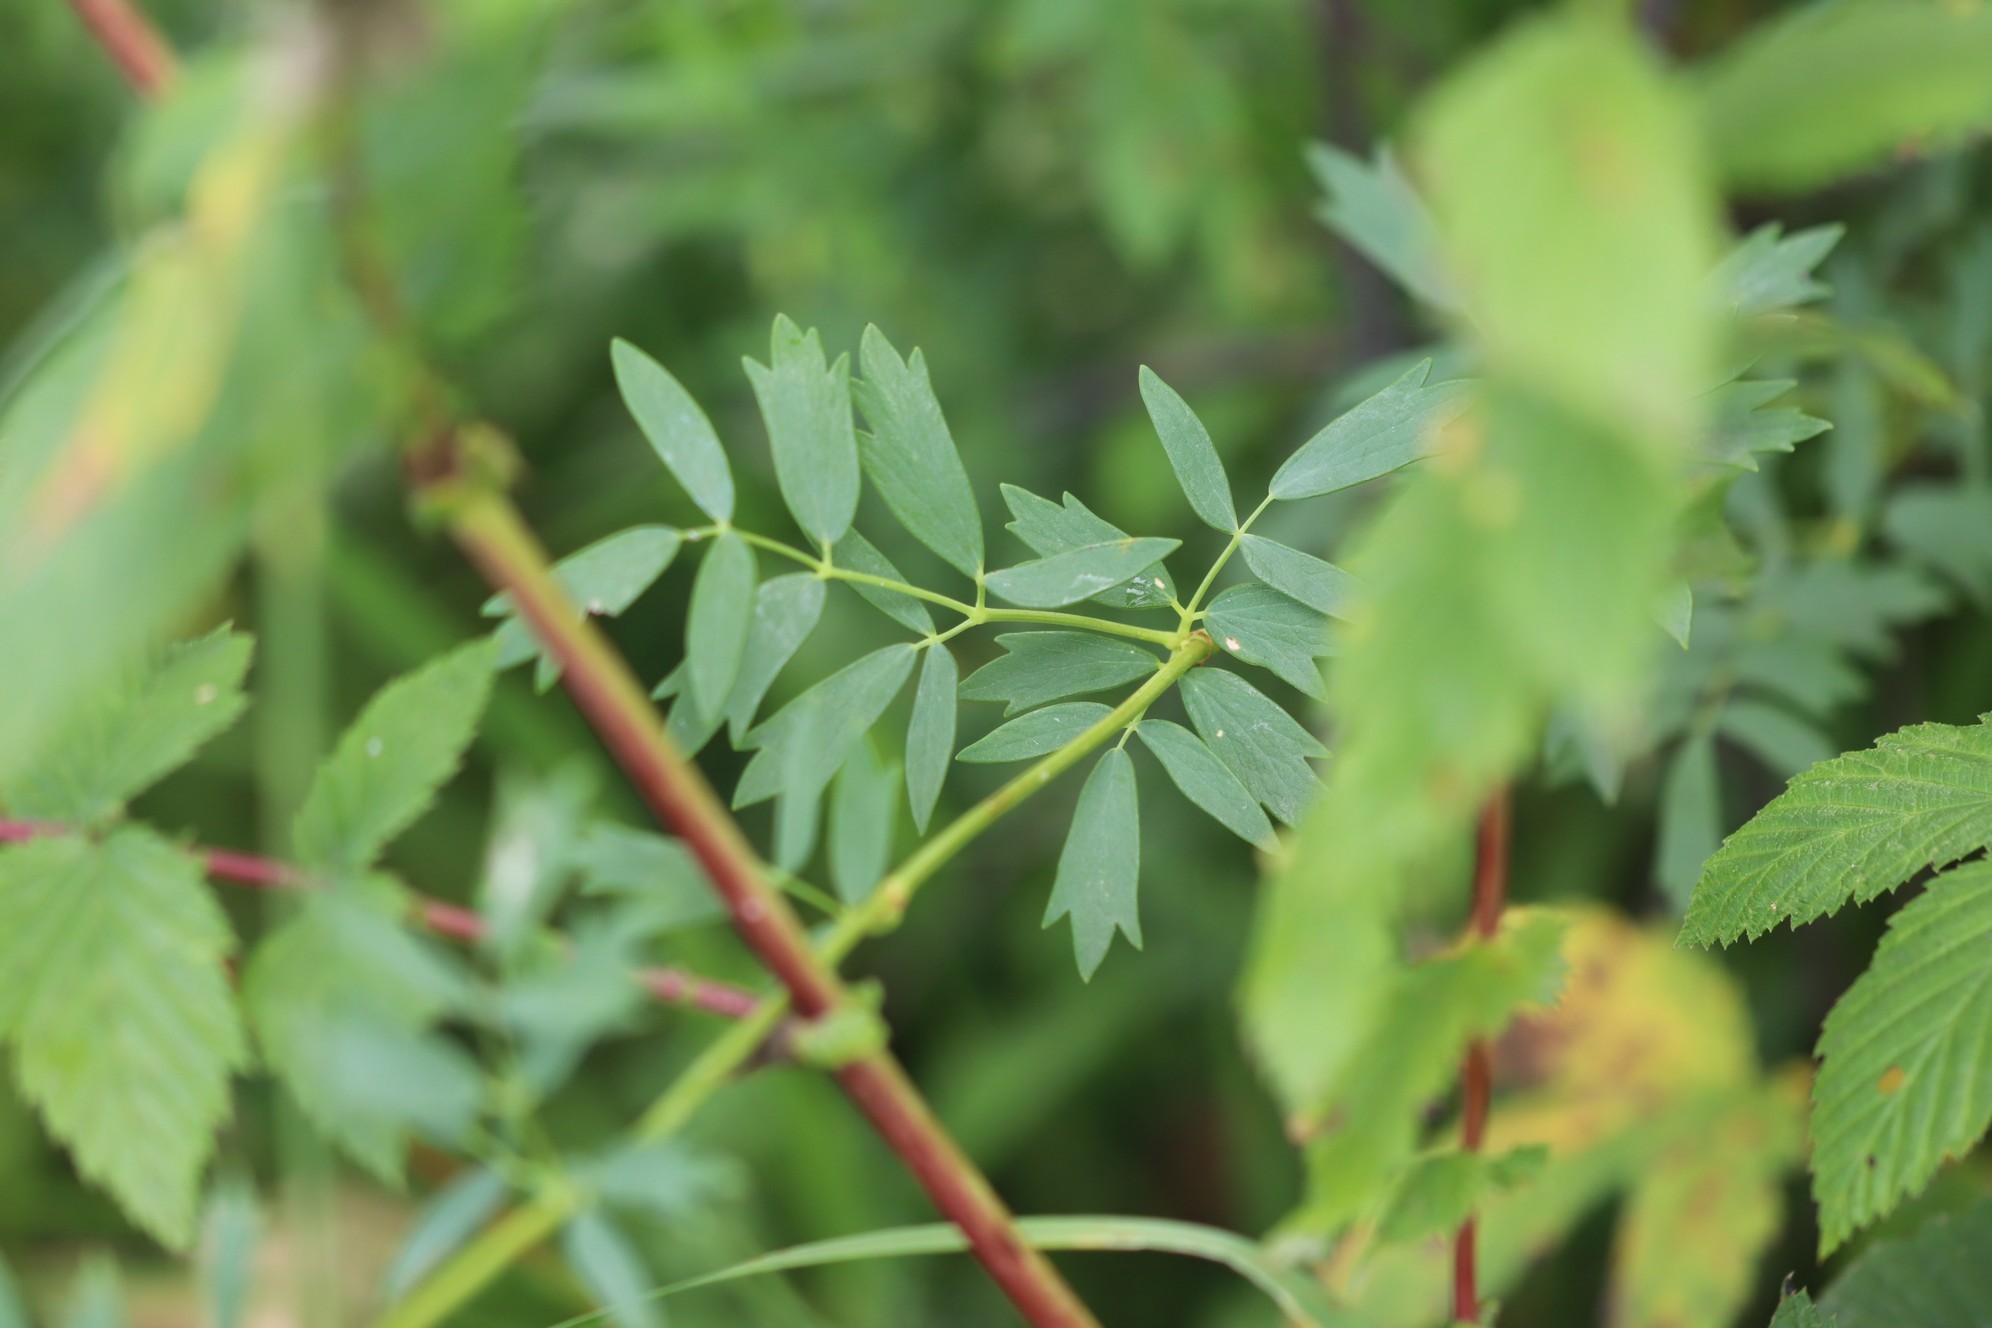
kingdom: Plantae
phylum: Tracheophyta
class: Magnoliopsida
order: Ranunculales
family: Ranunculaceae
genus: Thalictrum
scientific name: Thalictrum simplex
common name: Small meadow-rue
